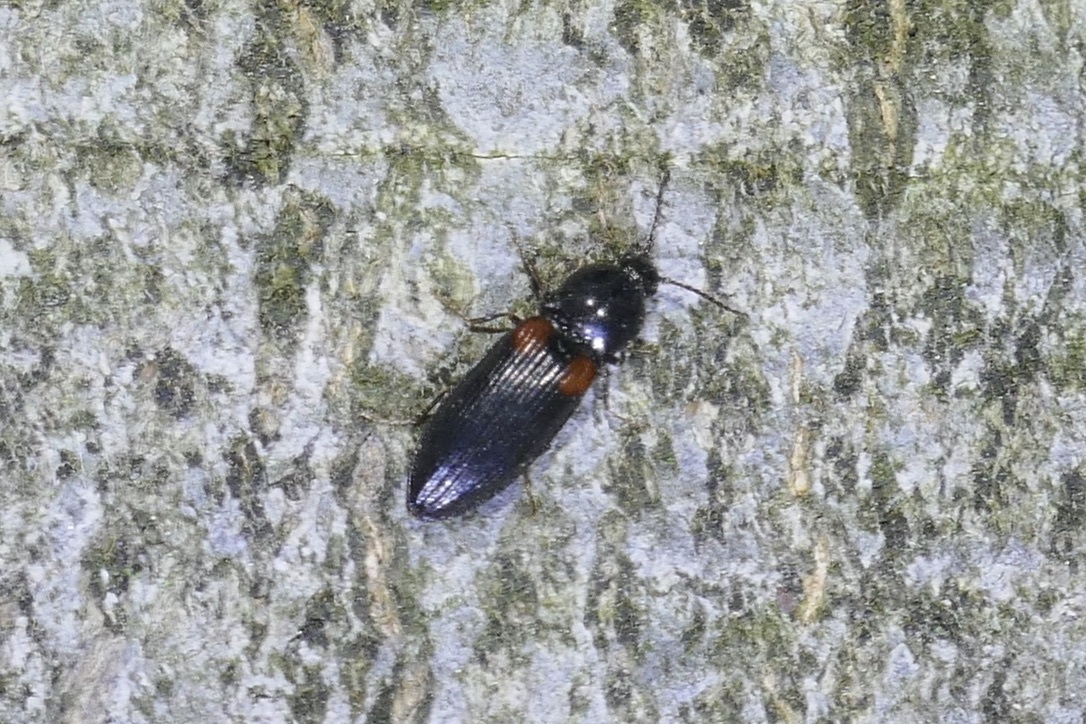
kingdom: Animalia
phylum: Arthropoda
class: Insecta
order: Coleoptera
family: Elateridae
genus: Calambus
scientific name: Calambus bipustulatus
